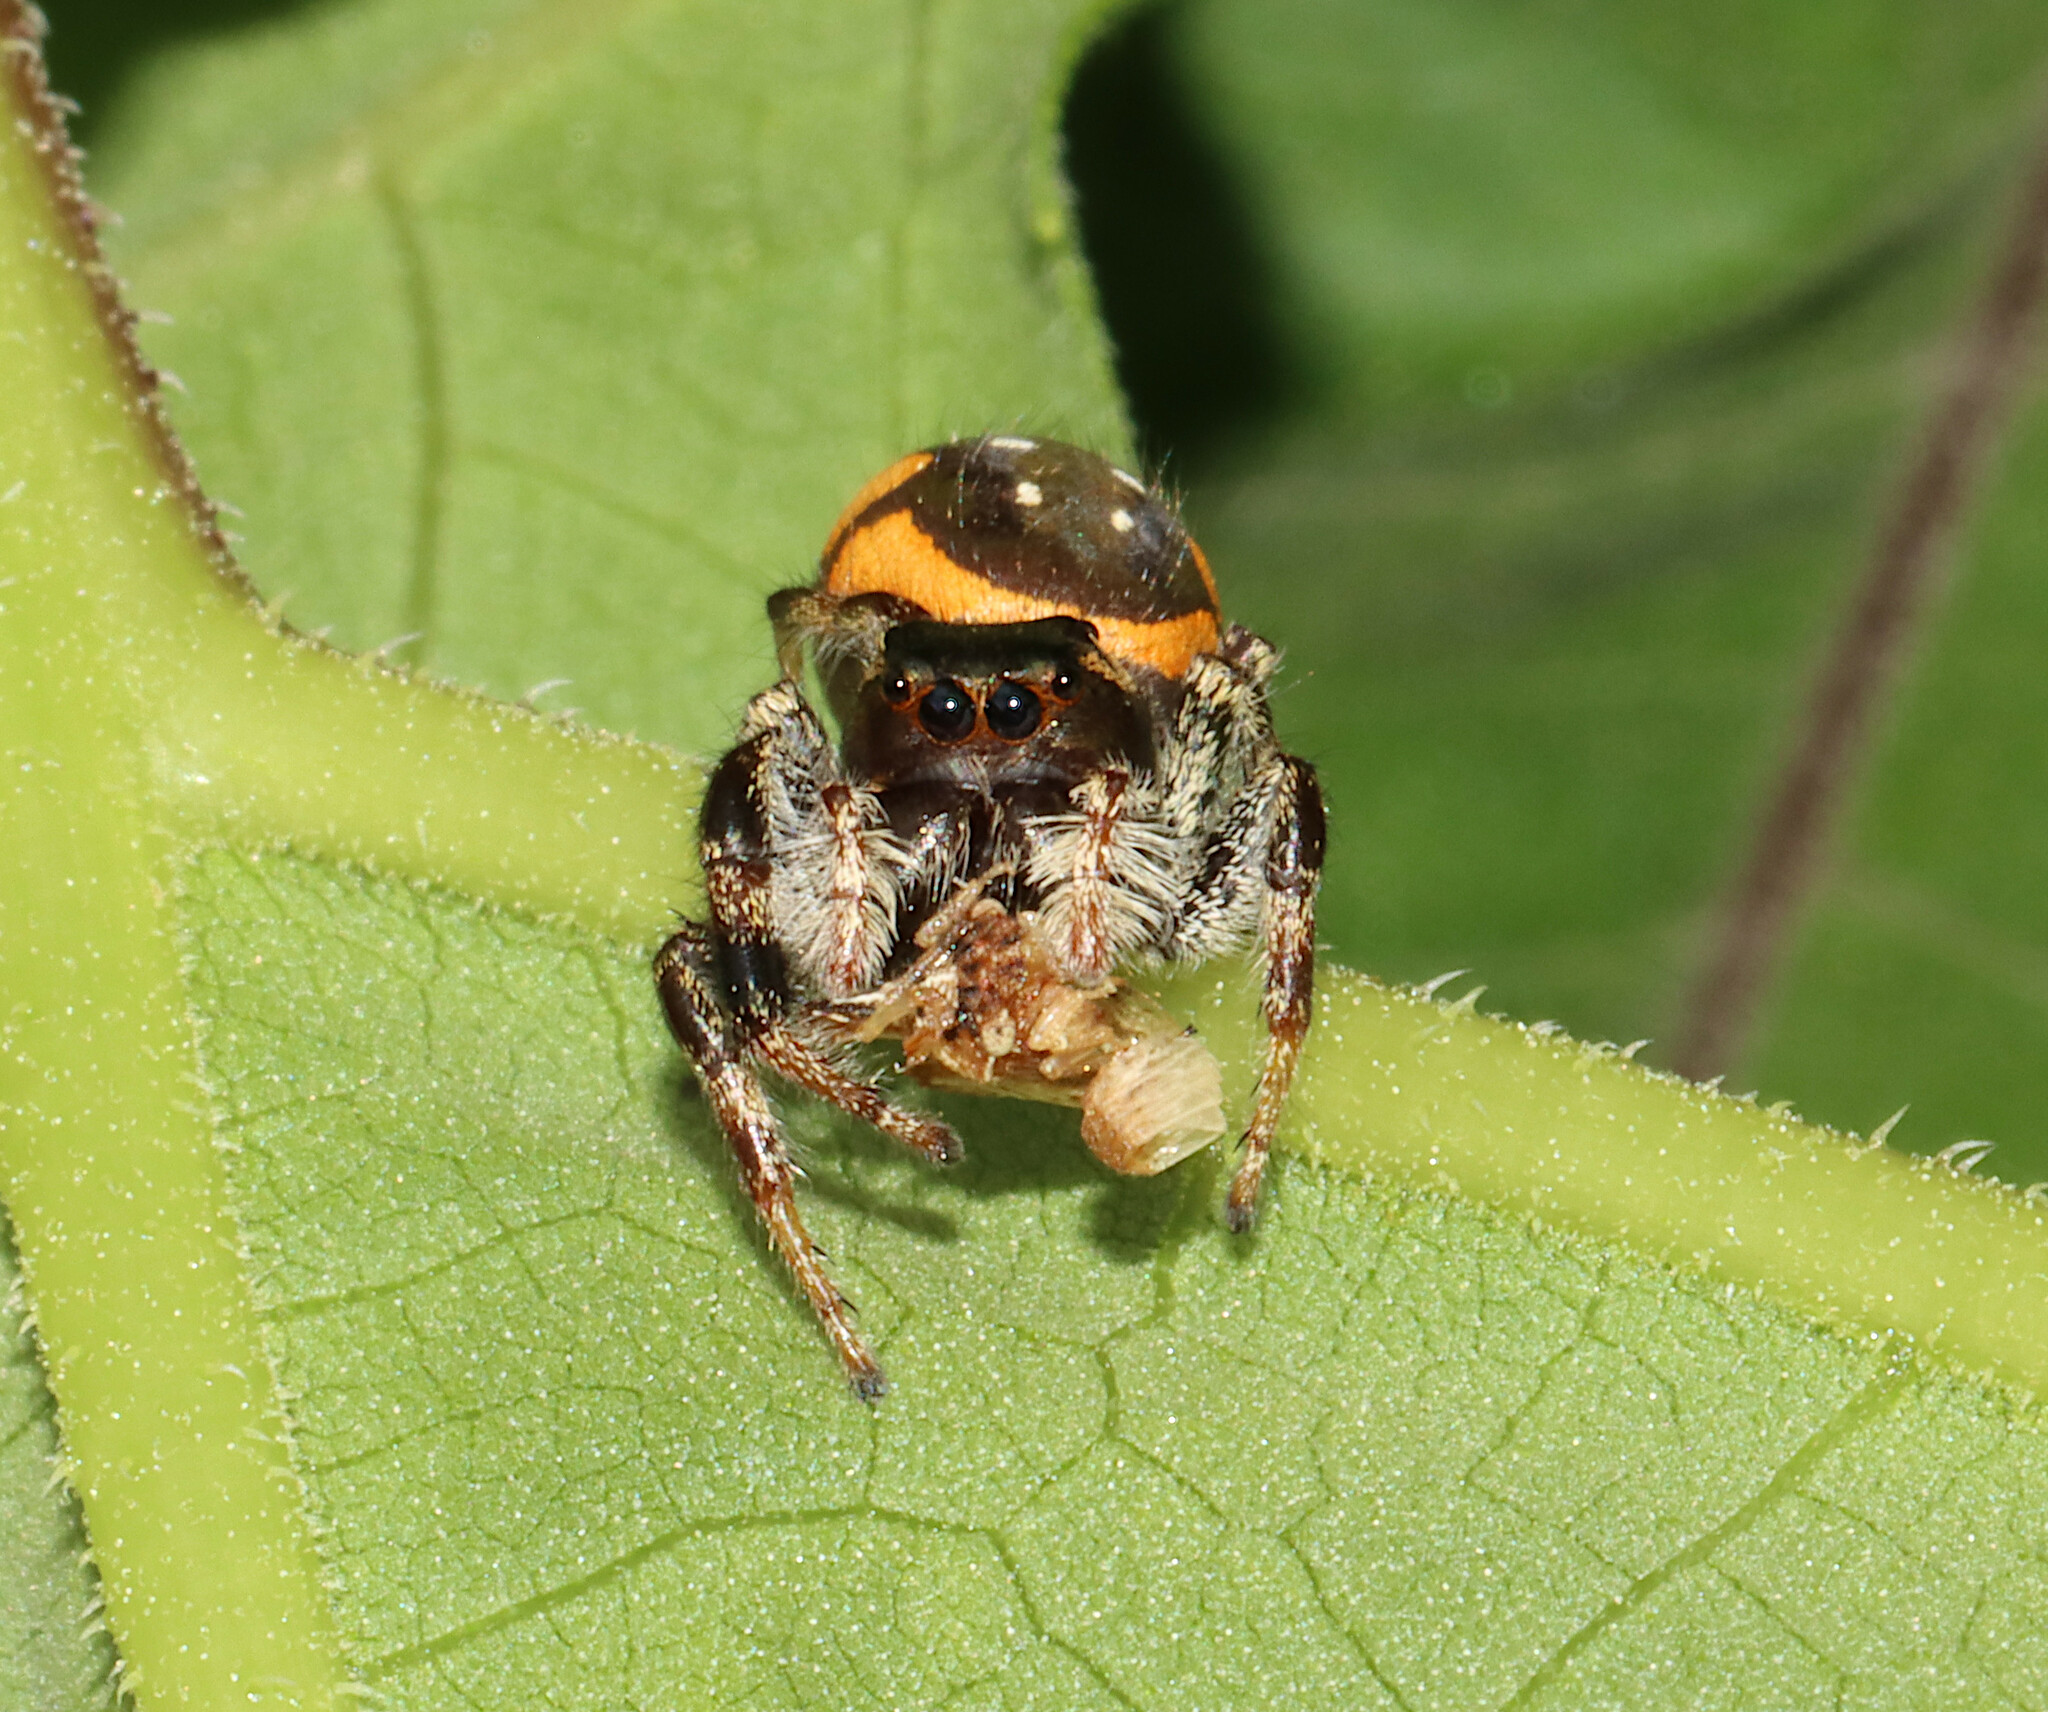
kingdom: Animalia
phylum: Arthropoda
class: Arachnida
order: Araneae
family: Salticidae
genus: Paraphidippus
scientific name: Paraphidippus aurantius
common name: Jumping spiders
